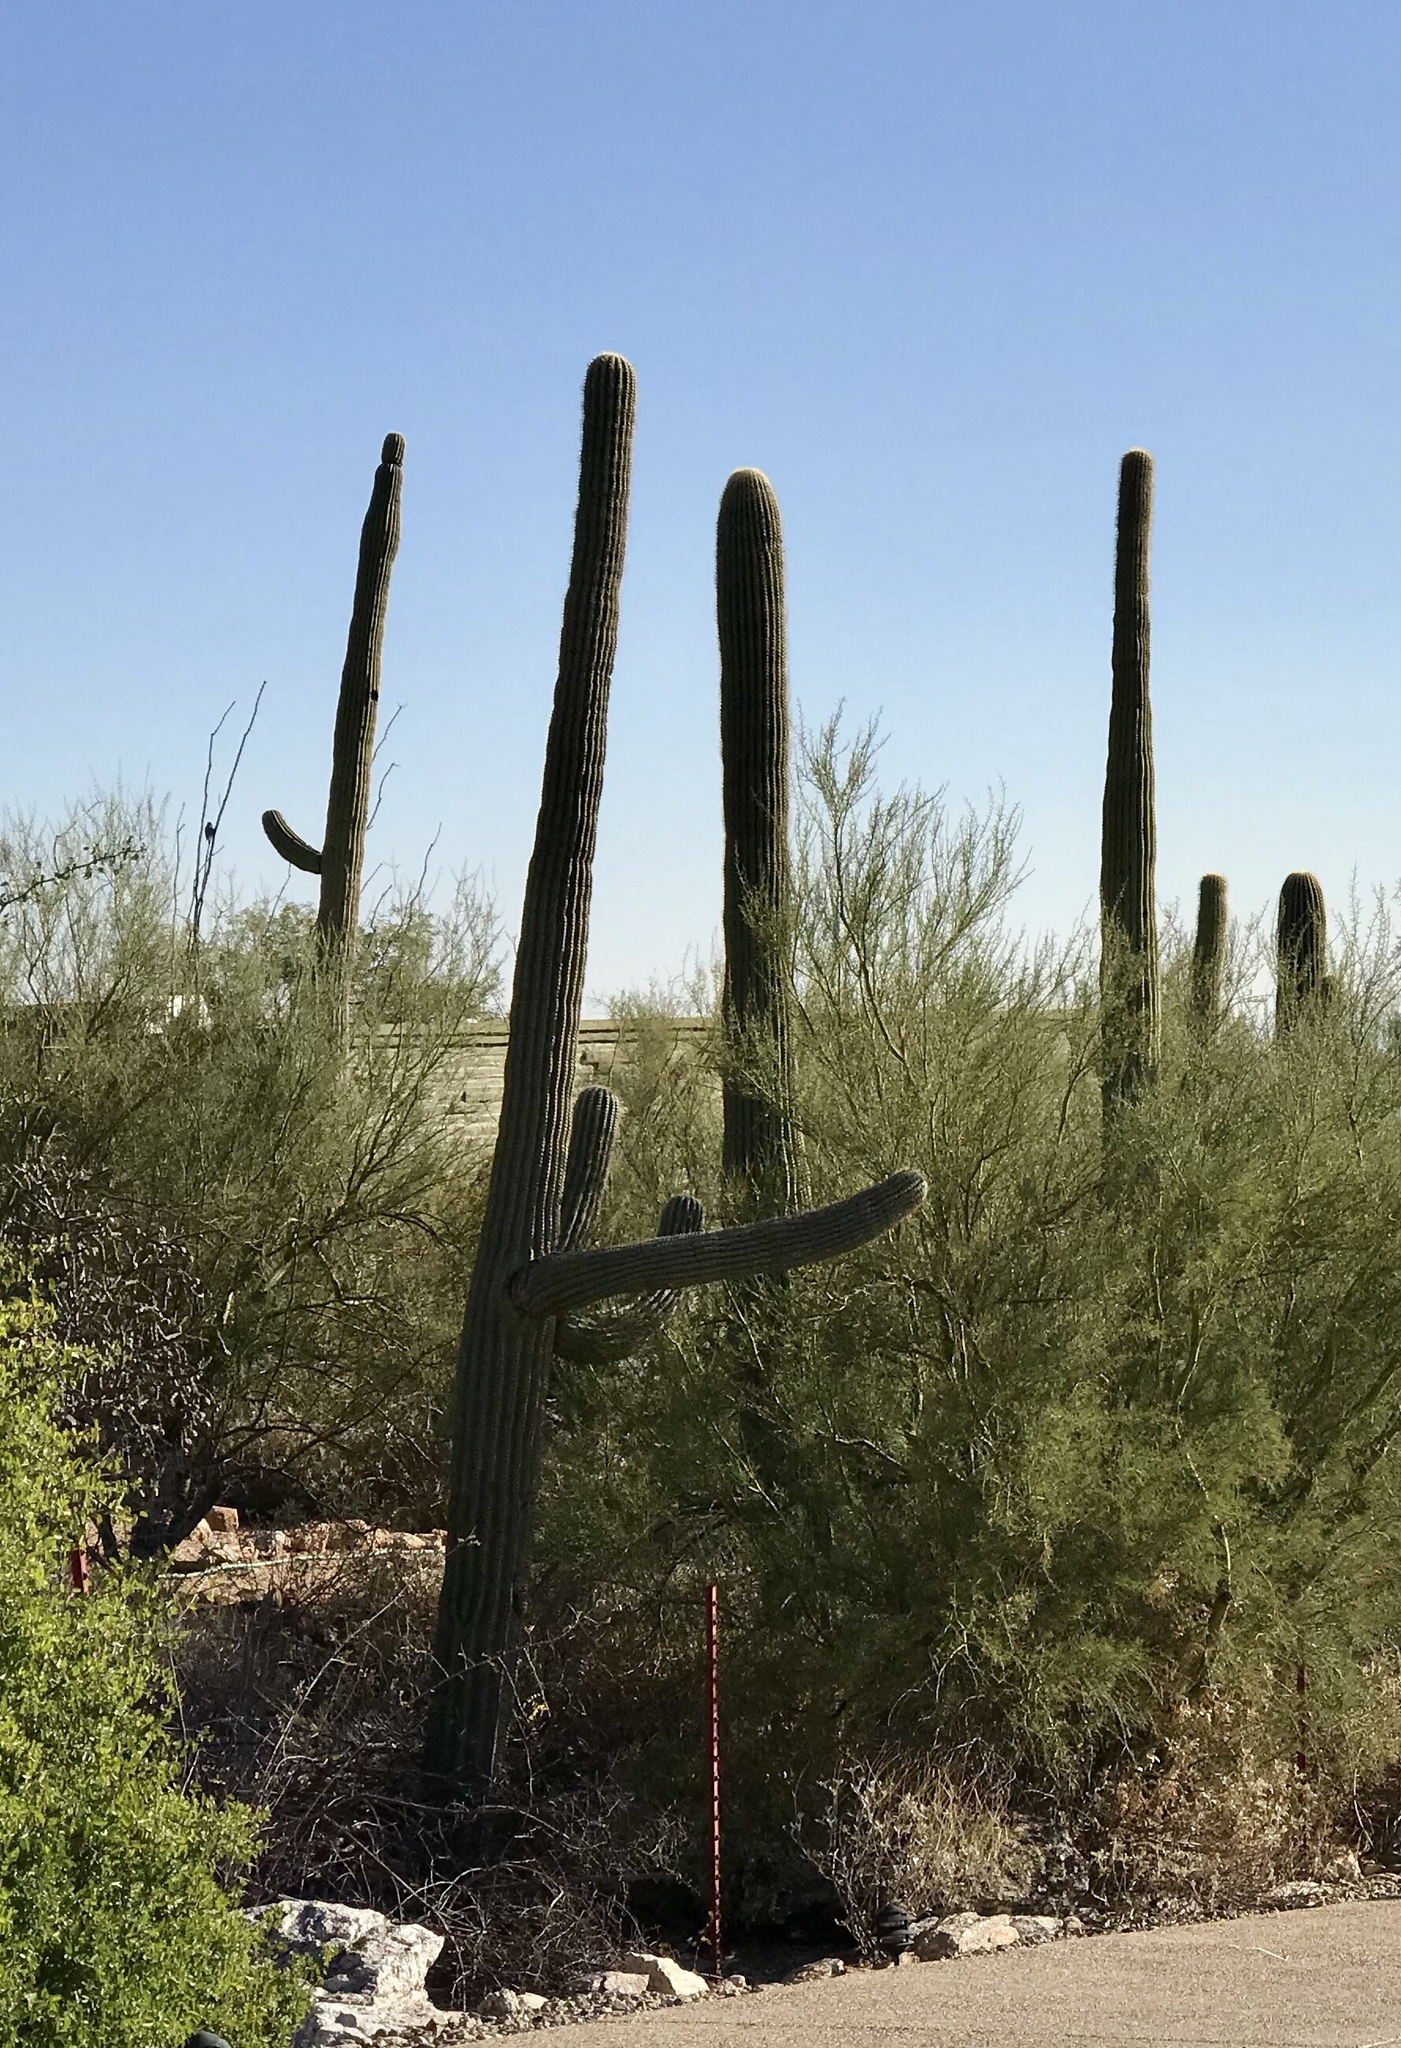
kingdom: Plantae
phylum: Tracheophyta
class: Magnoliopsida
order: Caryophyllales
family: Cactaceae
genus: Carnegiea
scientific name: Carnegiea gigantea
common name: Saguaro
